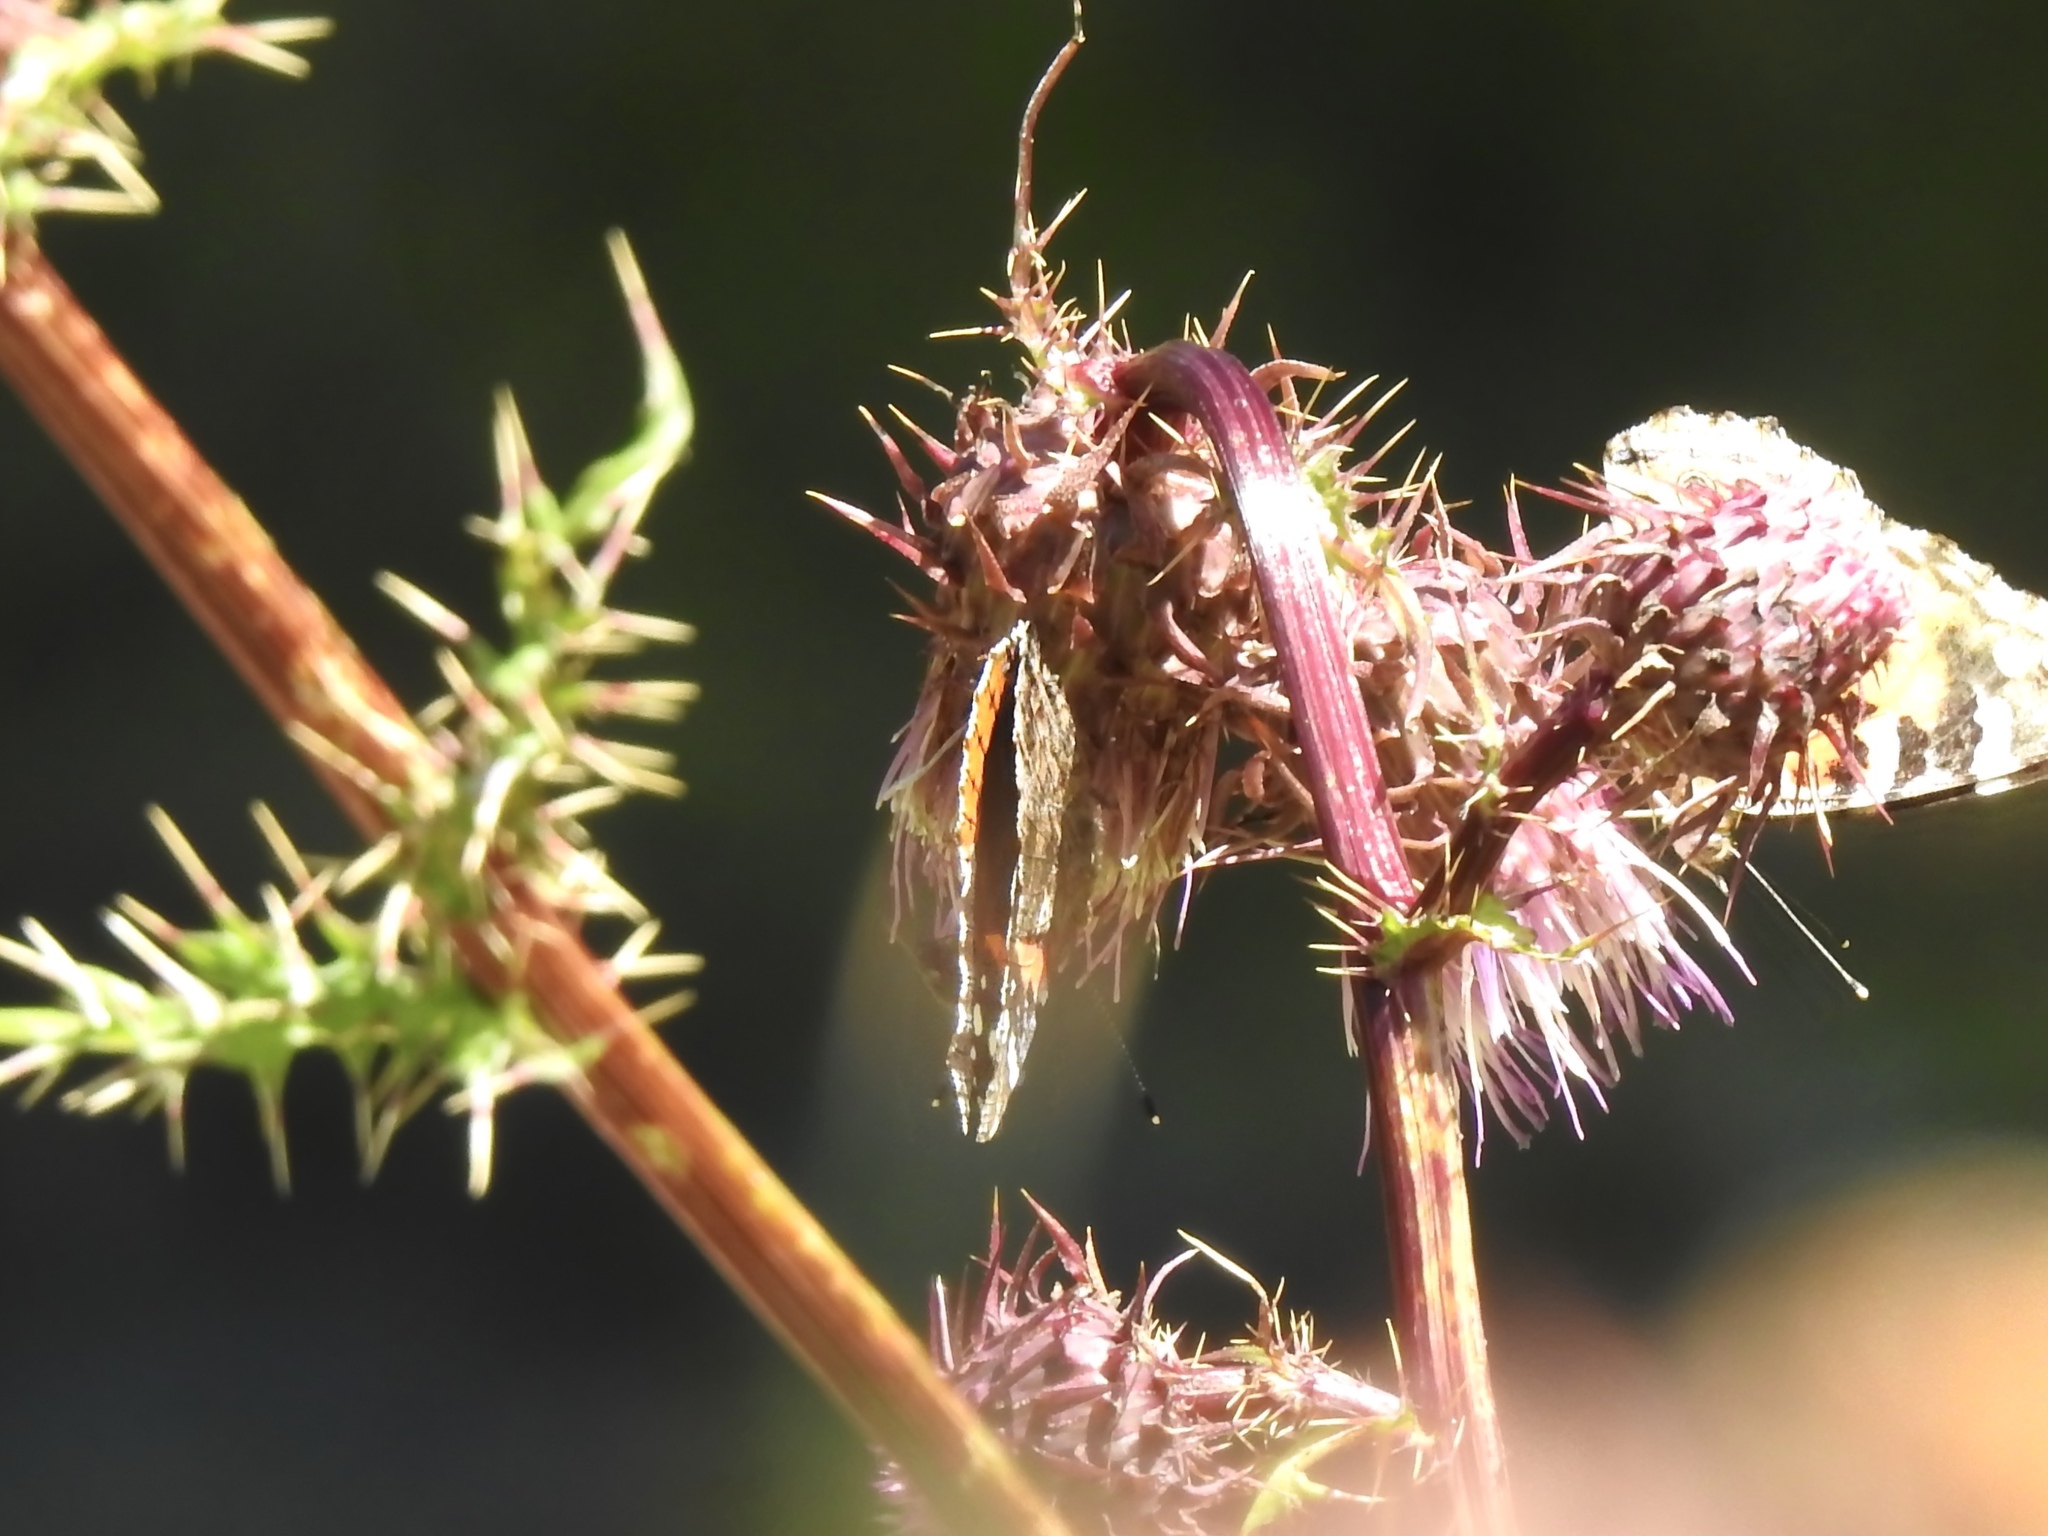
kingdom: Animalia
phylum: Arthropoda
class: Insecta
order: Lepidoptera
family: Nymphalidae
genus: Vanessa
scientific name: Vanessa atalanta
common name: Red admiral
